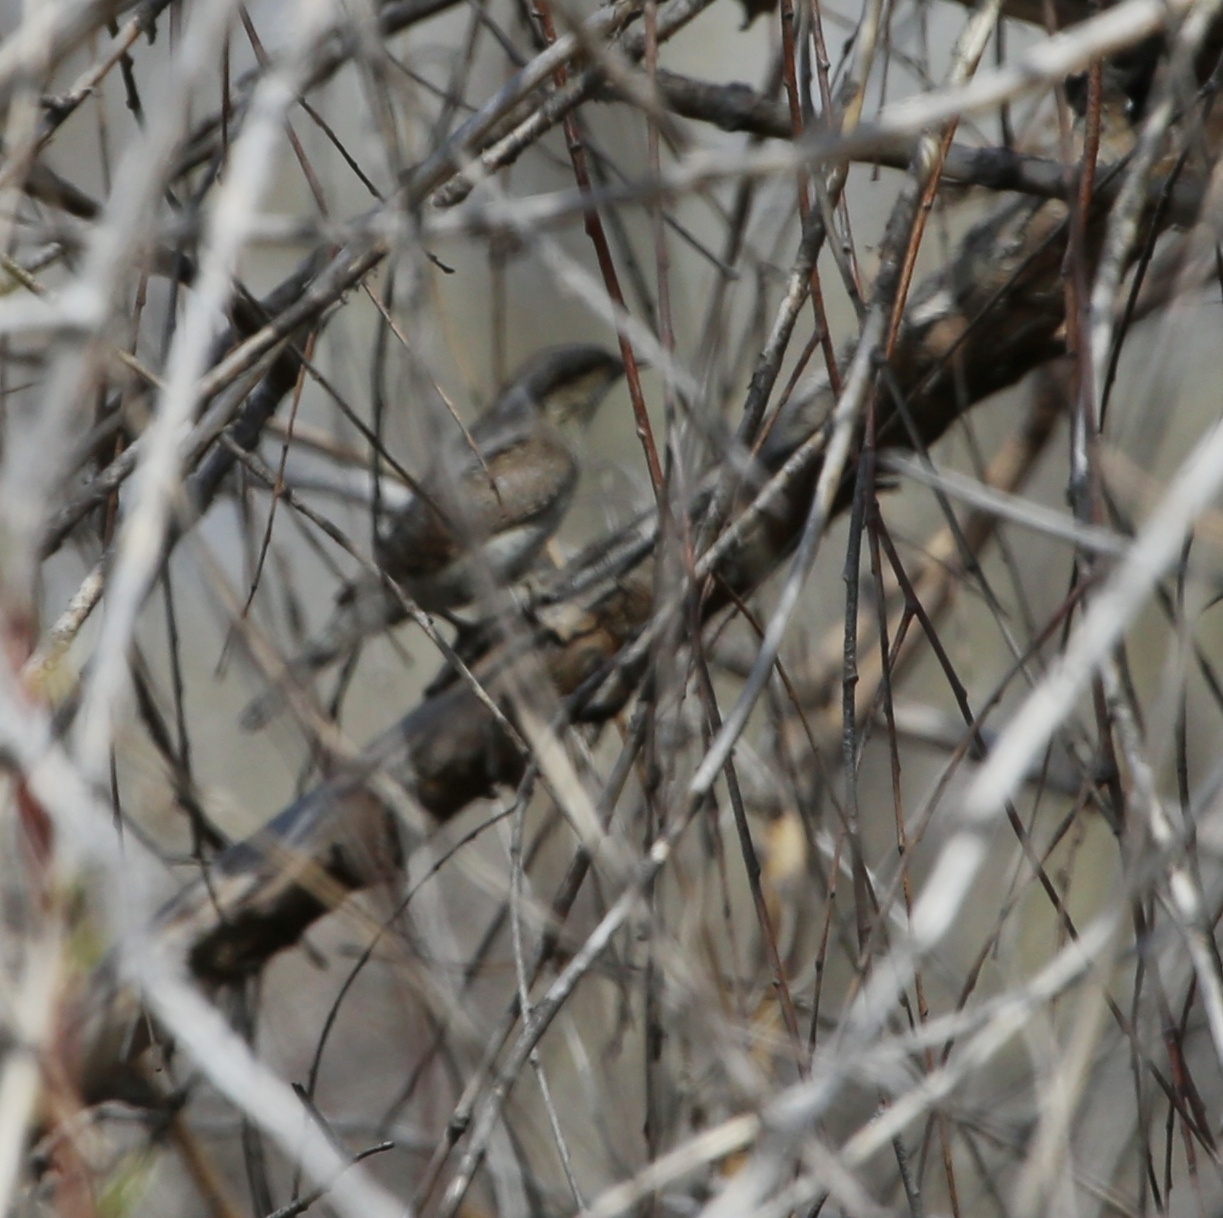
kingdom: Animalia
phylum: Chordata
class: Aves
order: Piciformes
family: Picidae
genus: Jynx
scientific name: Jynx torquilla
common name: Eurasian wryneck
